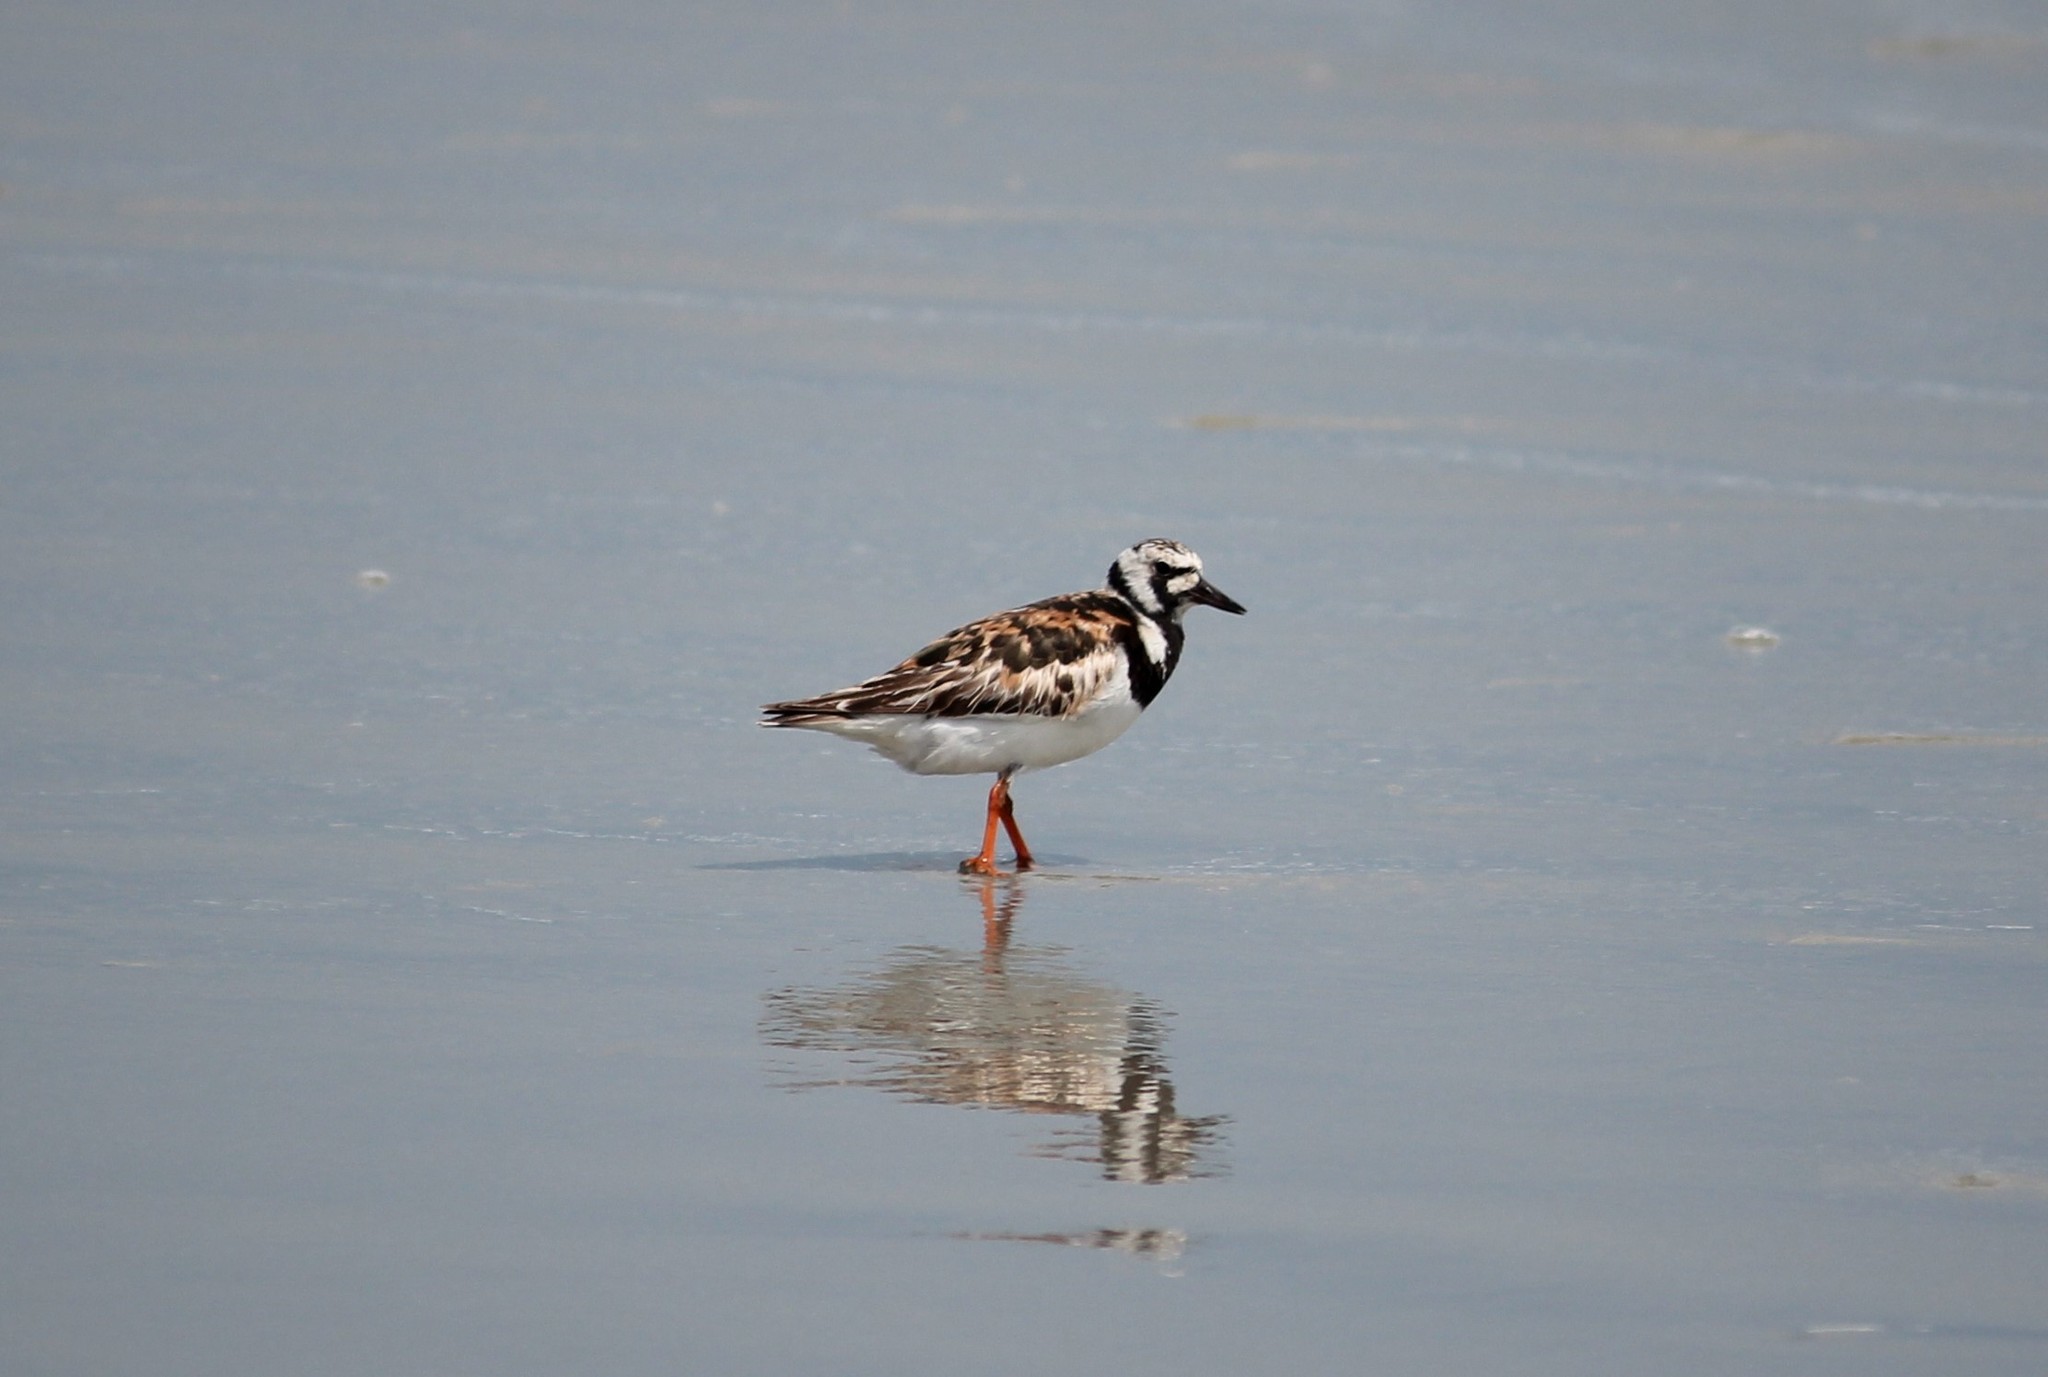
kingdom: Animalia
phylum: Chordata
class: Aves
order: Charadriiformes
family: Scolopacidae
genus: Arenaria
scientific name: Arenaria interpres
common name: Ruddy turnstone
